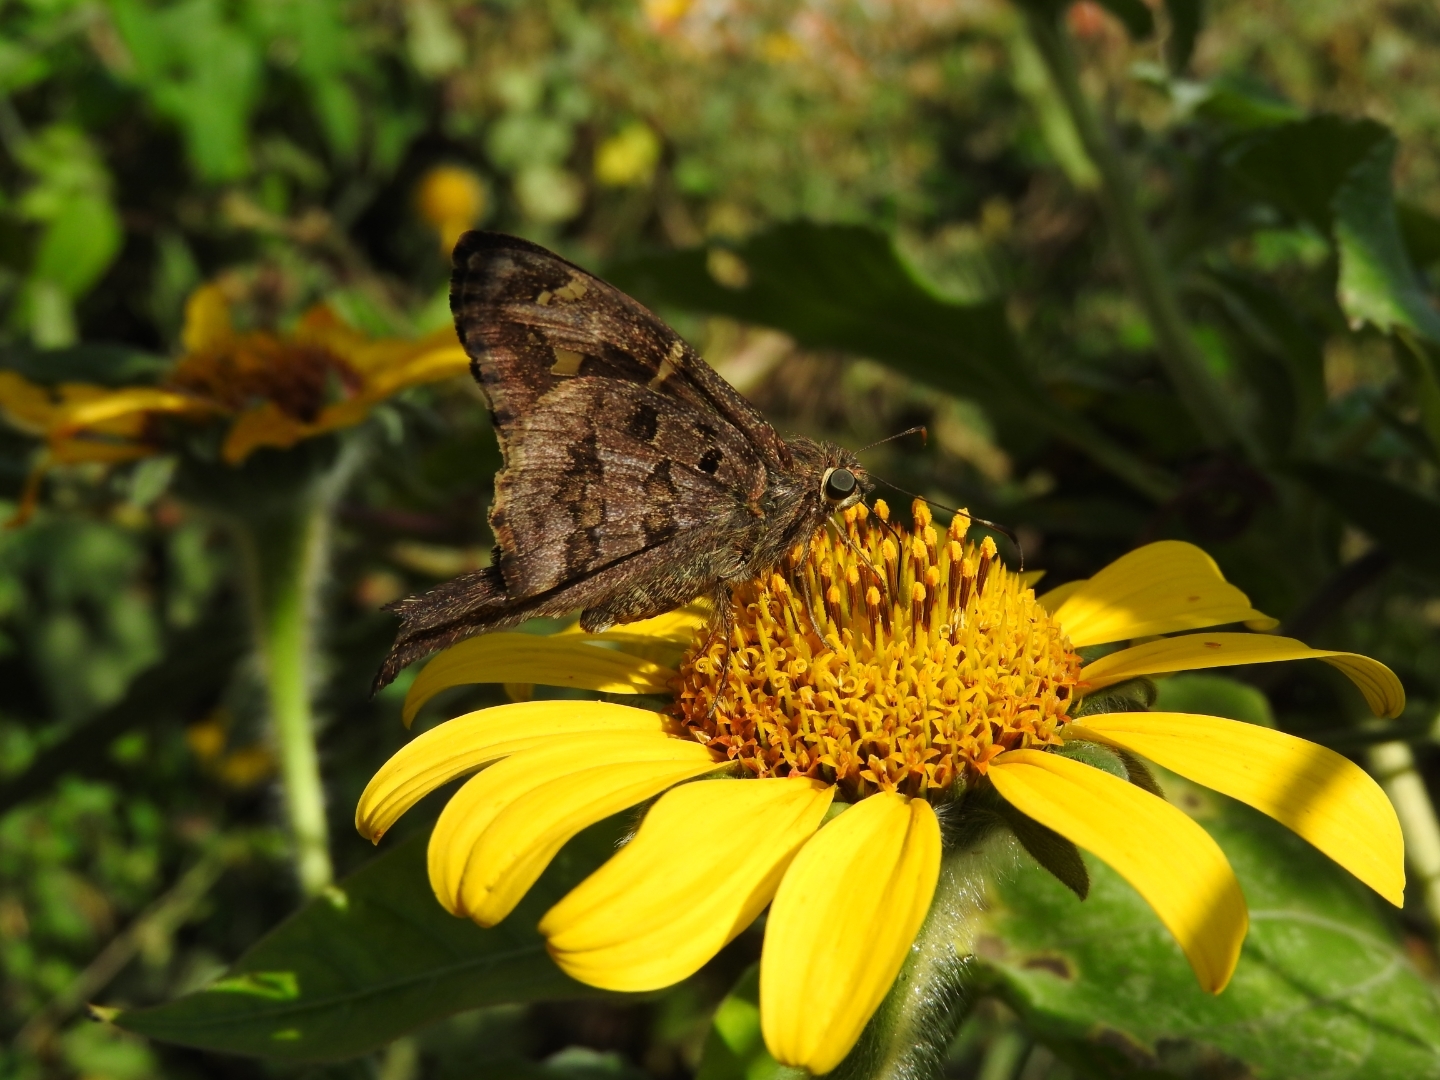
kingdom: Animalia
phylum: Arthropoda
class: Insecta
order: Lepidoptera
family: Hesperiidae
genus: Thorybes
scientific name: Thorybes
